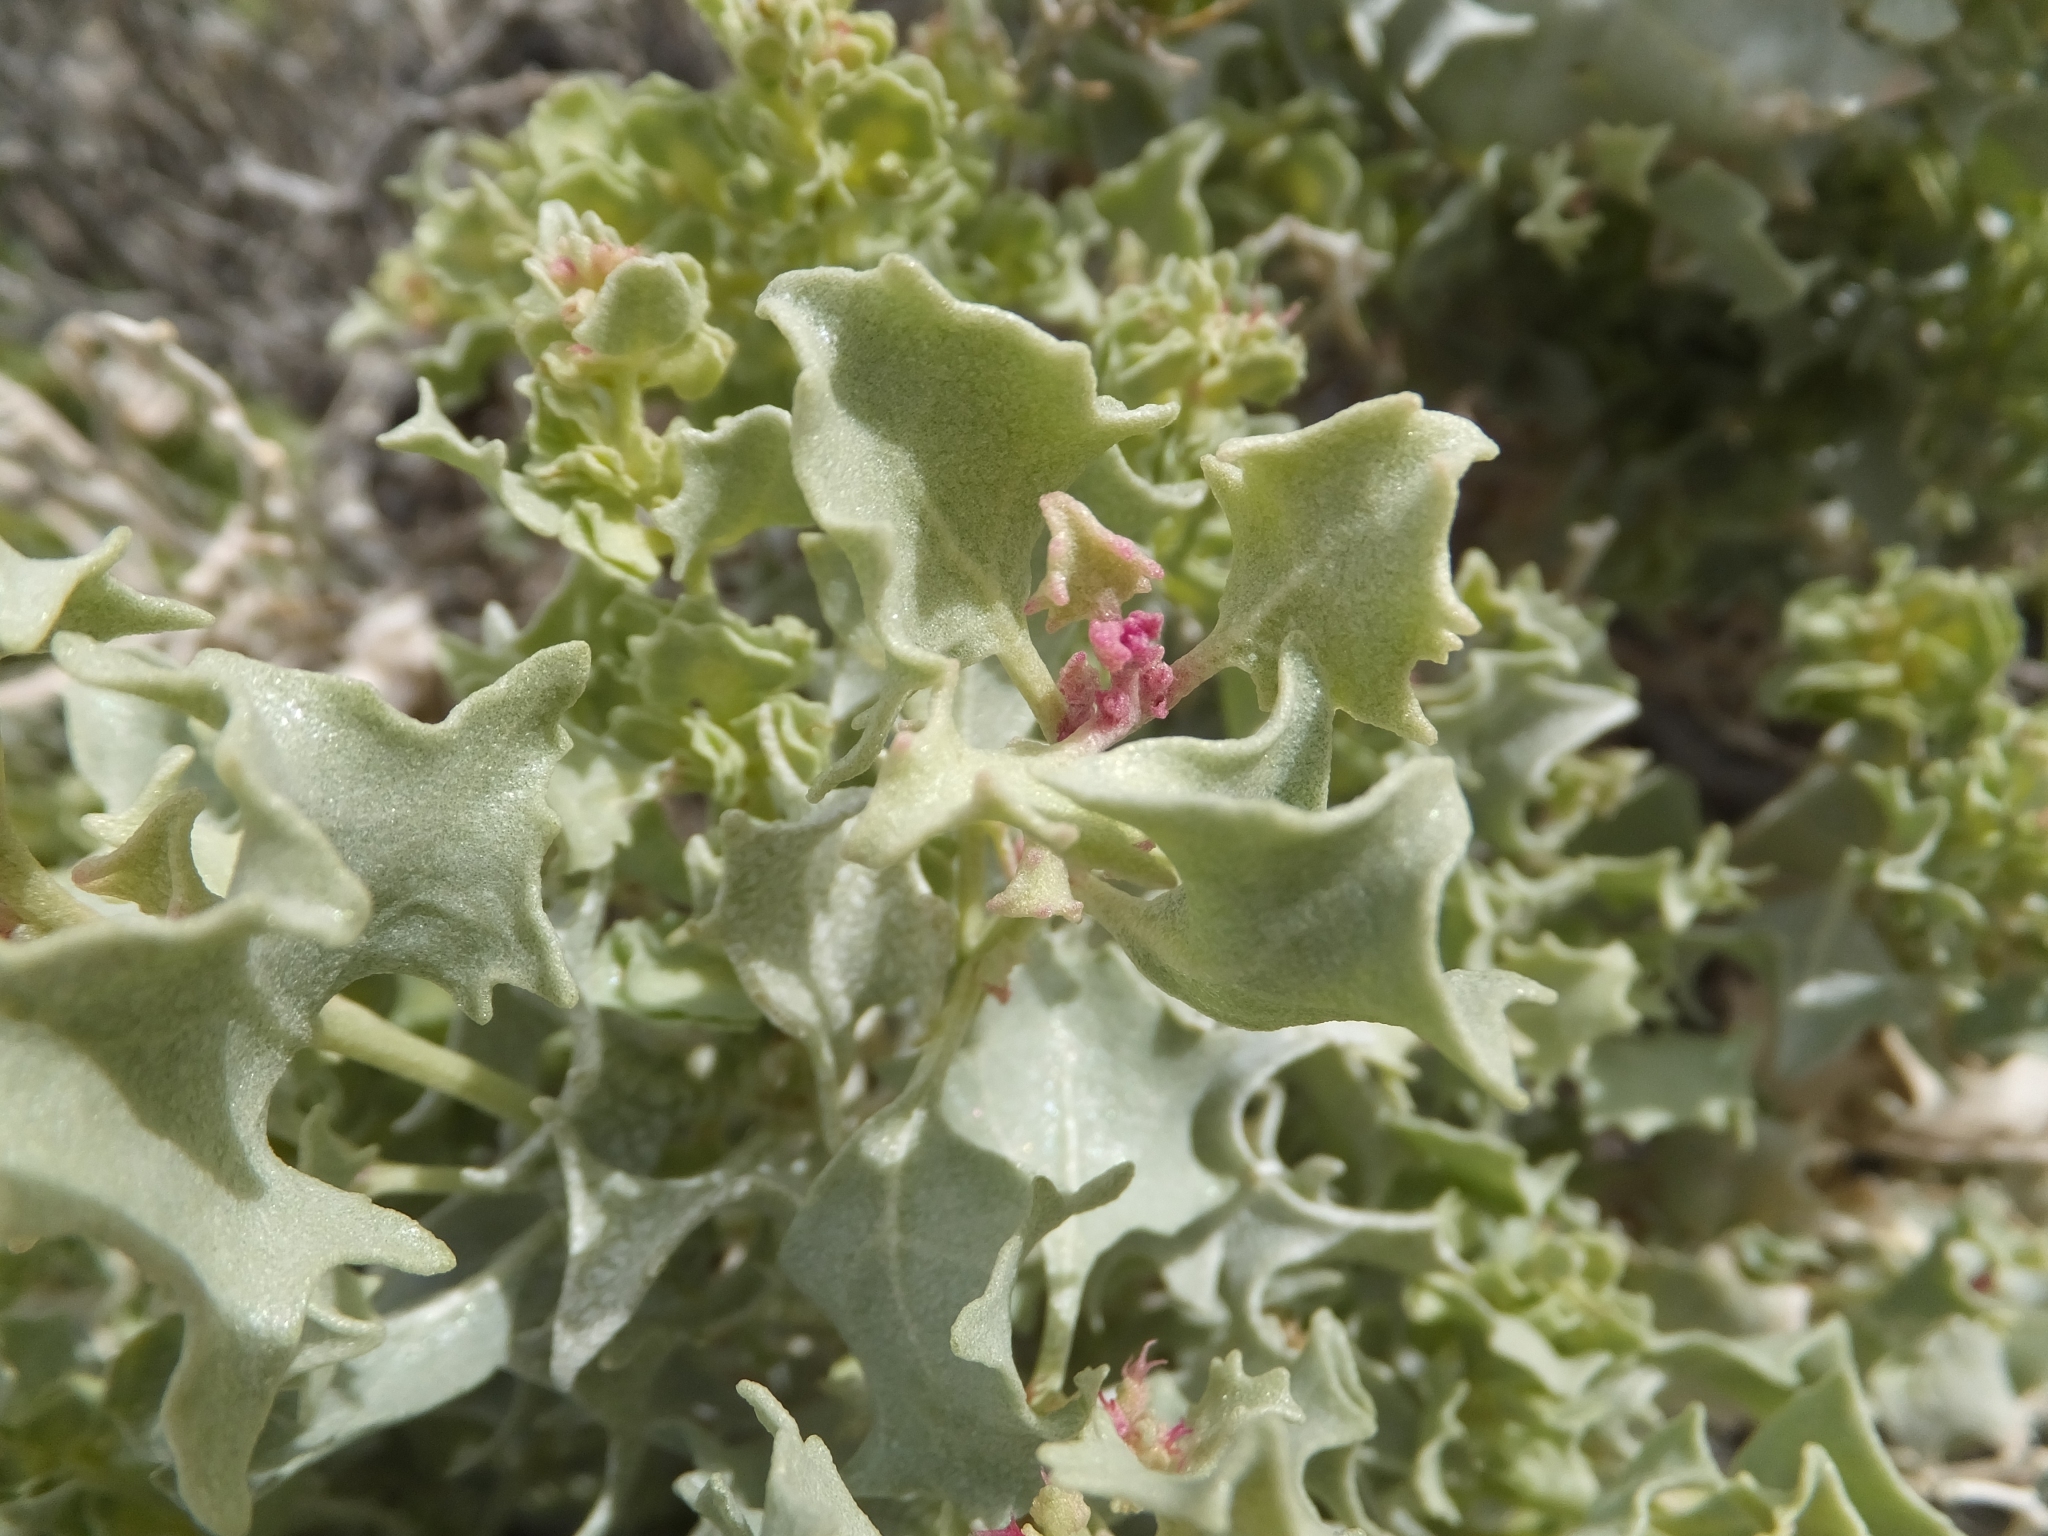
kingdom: Plantae
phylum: Tracheophyta
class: Magnoliopsida
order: Caryophyllales
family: Amaranthaceae
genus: Atriplex
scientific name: Atriplex hymenelytra
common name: Desert-holly
